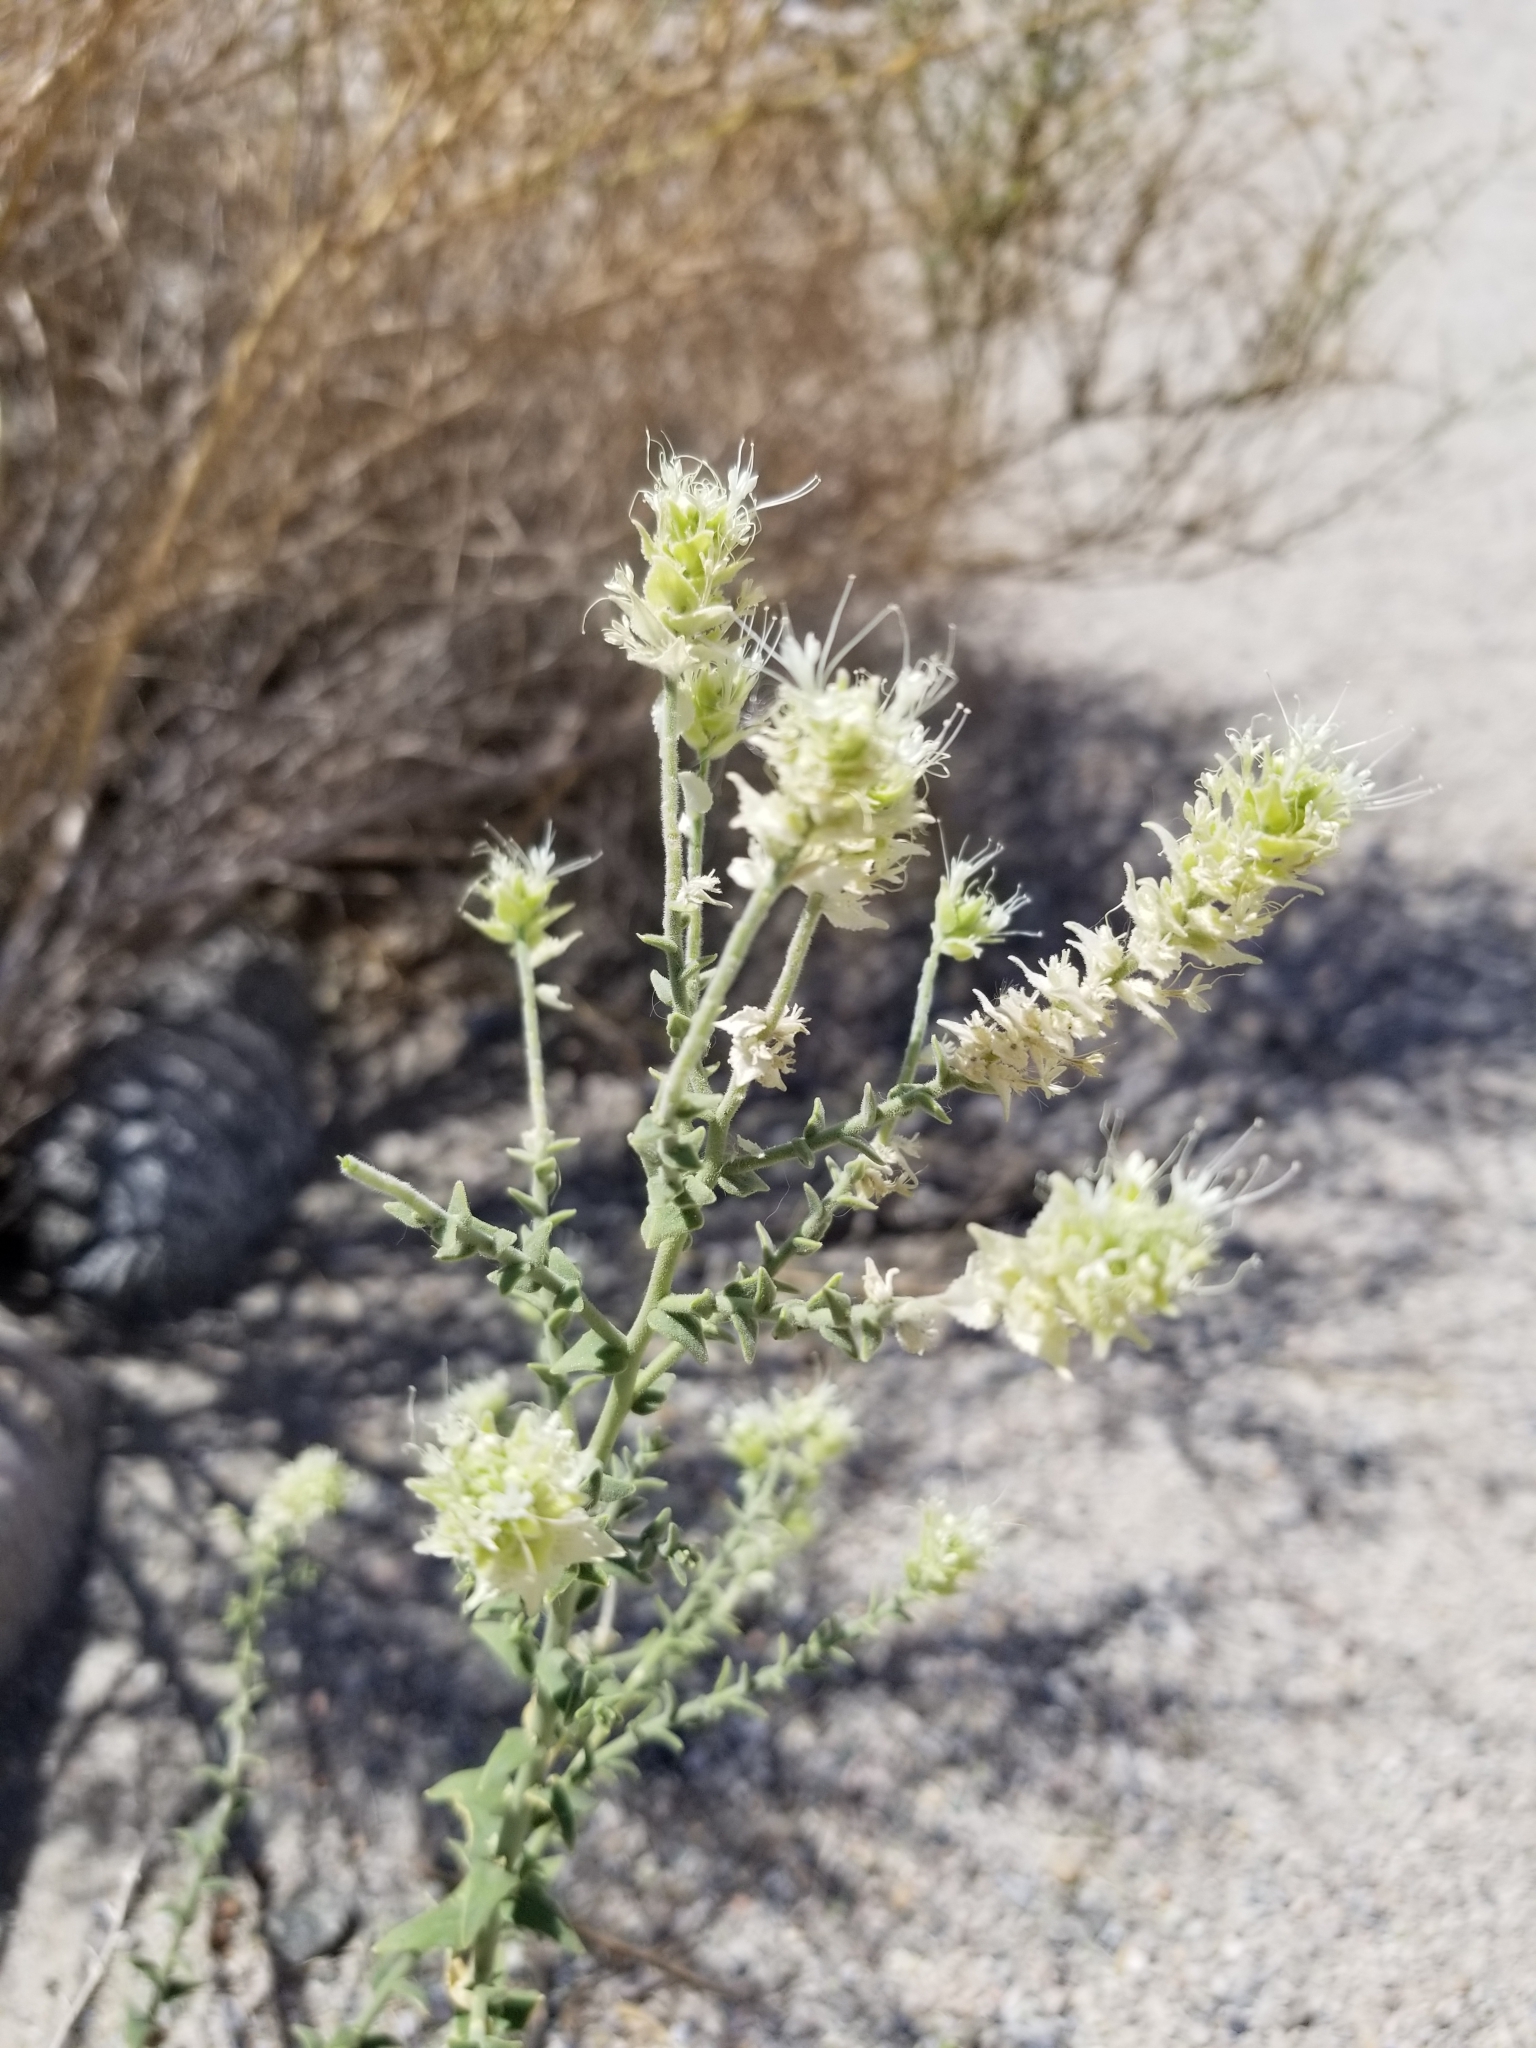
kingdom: Plantae
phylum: Tracheophyta
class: Magnoliopsida
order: Cornales
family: Loasaceae
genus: Petalonyx
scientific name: Petalonyx thurberi
